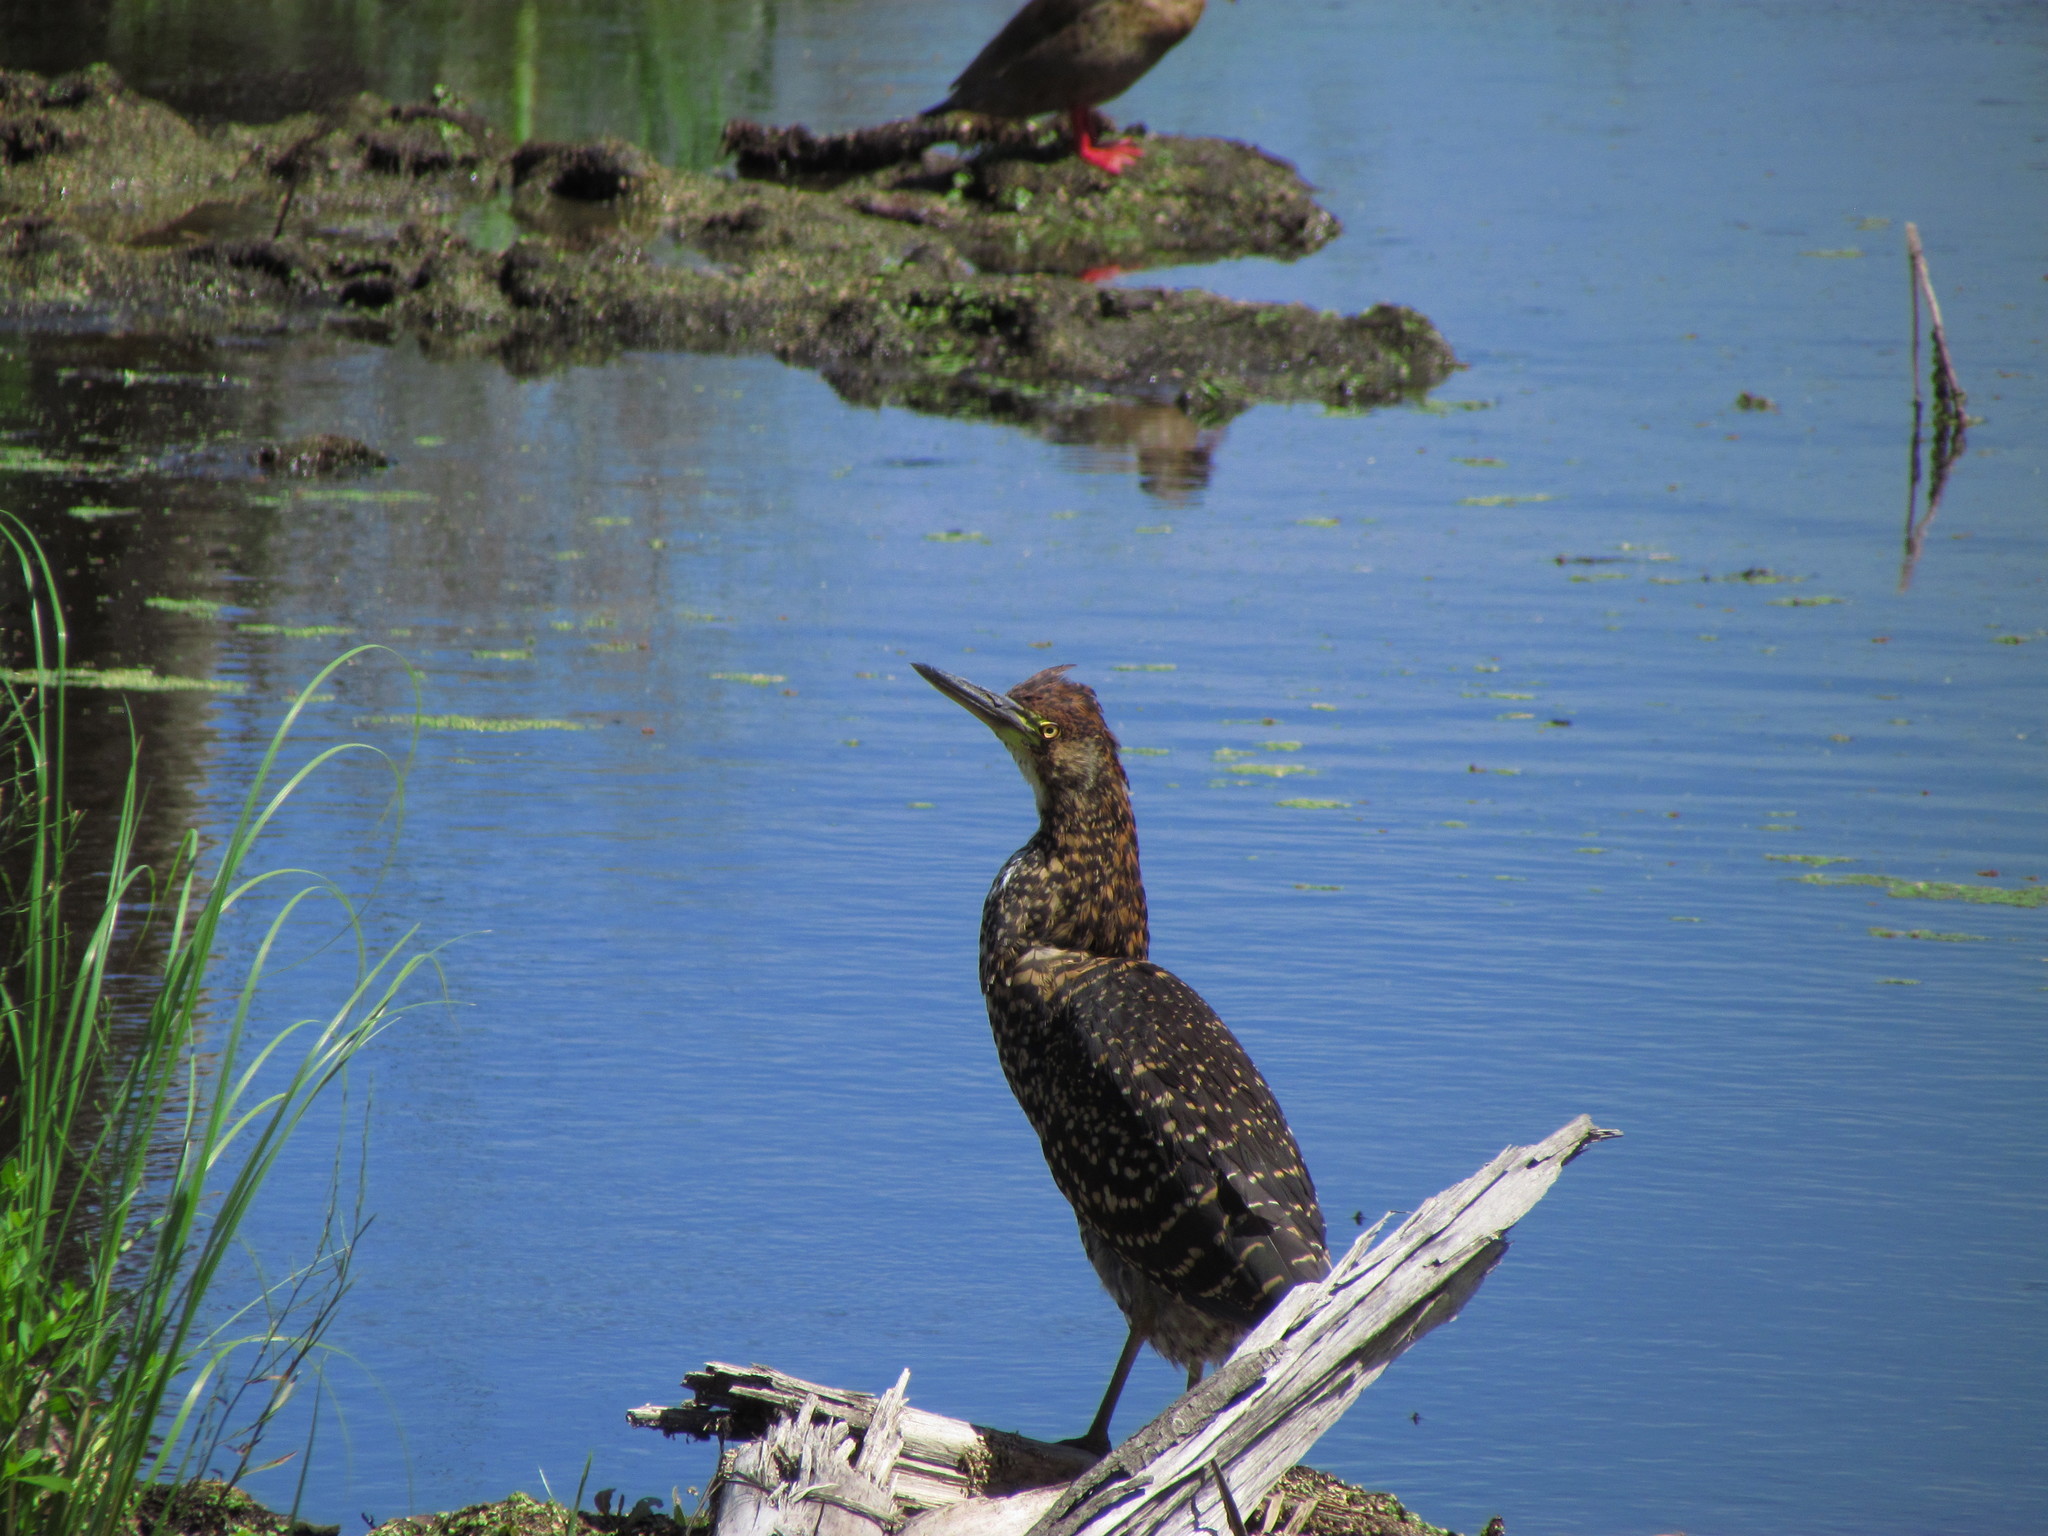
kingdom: Animalia
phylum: Chordata
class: Aves
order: Pelecaniformes
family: Ardeidae
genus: Tigrisoma
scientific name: Tigrisoma lineatum
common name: Rufescent tiger-heron
